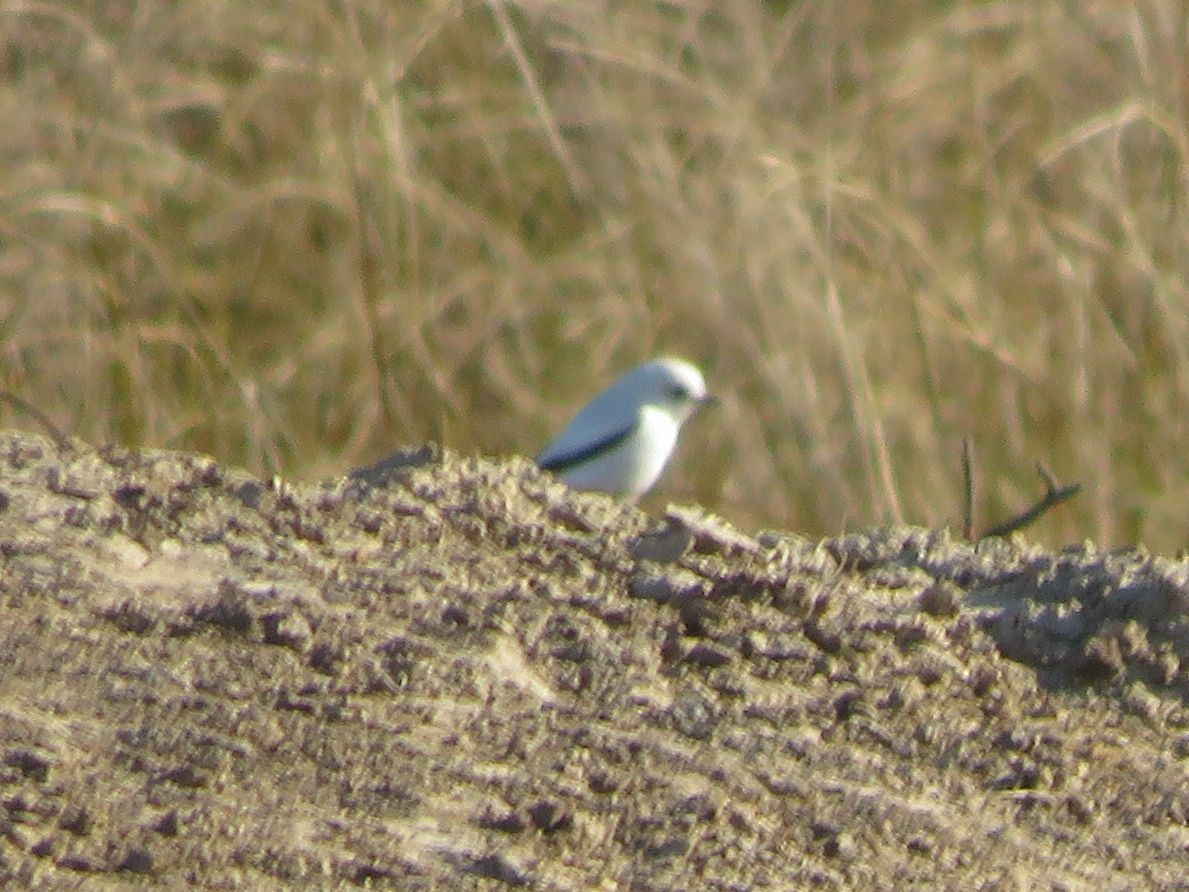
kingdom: Animalia
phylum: Chordata
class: Aves
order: Passeriformes
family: Tyrannidae
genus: Xolmis
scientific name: Xolmis irupero
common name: White monjita
